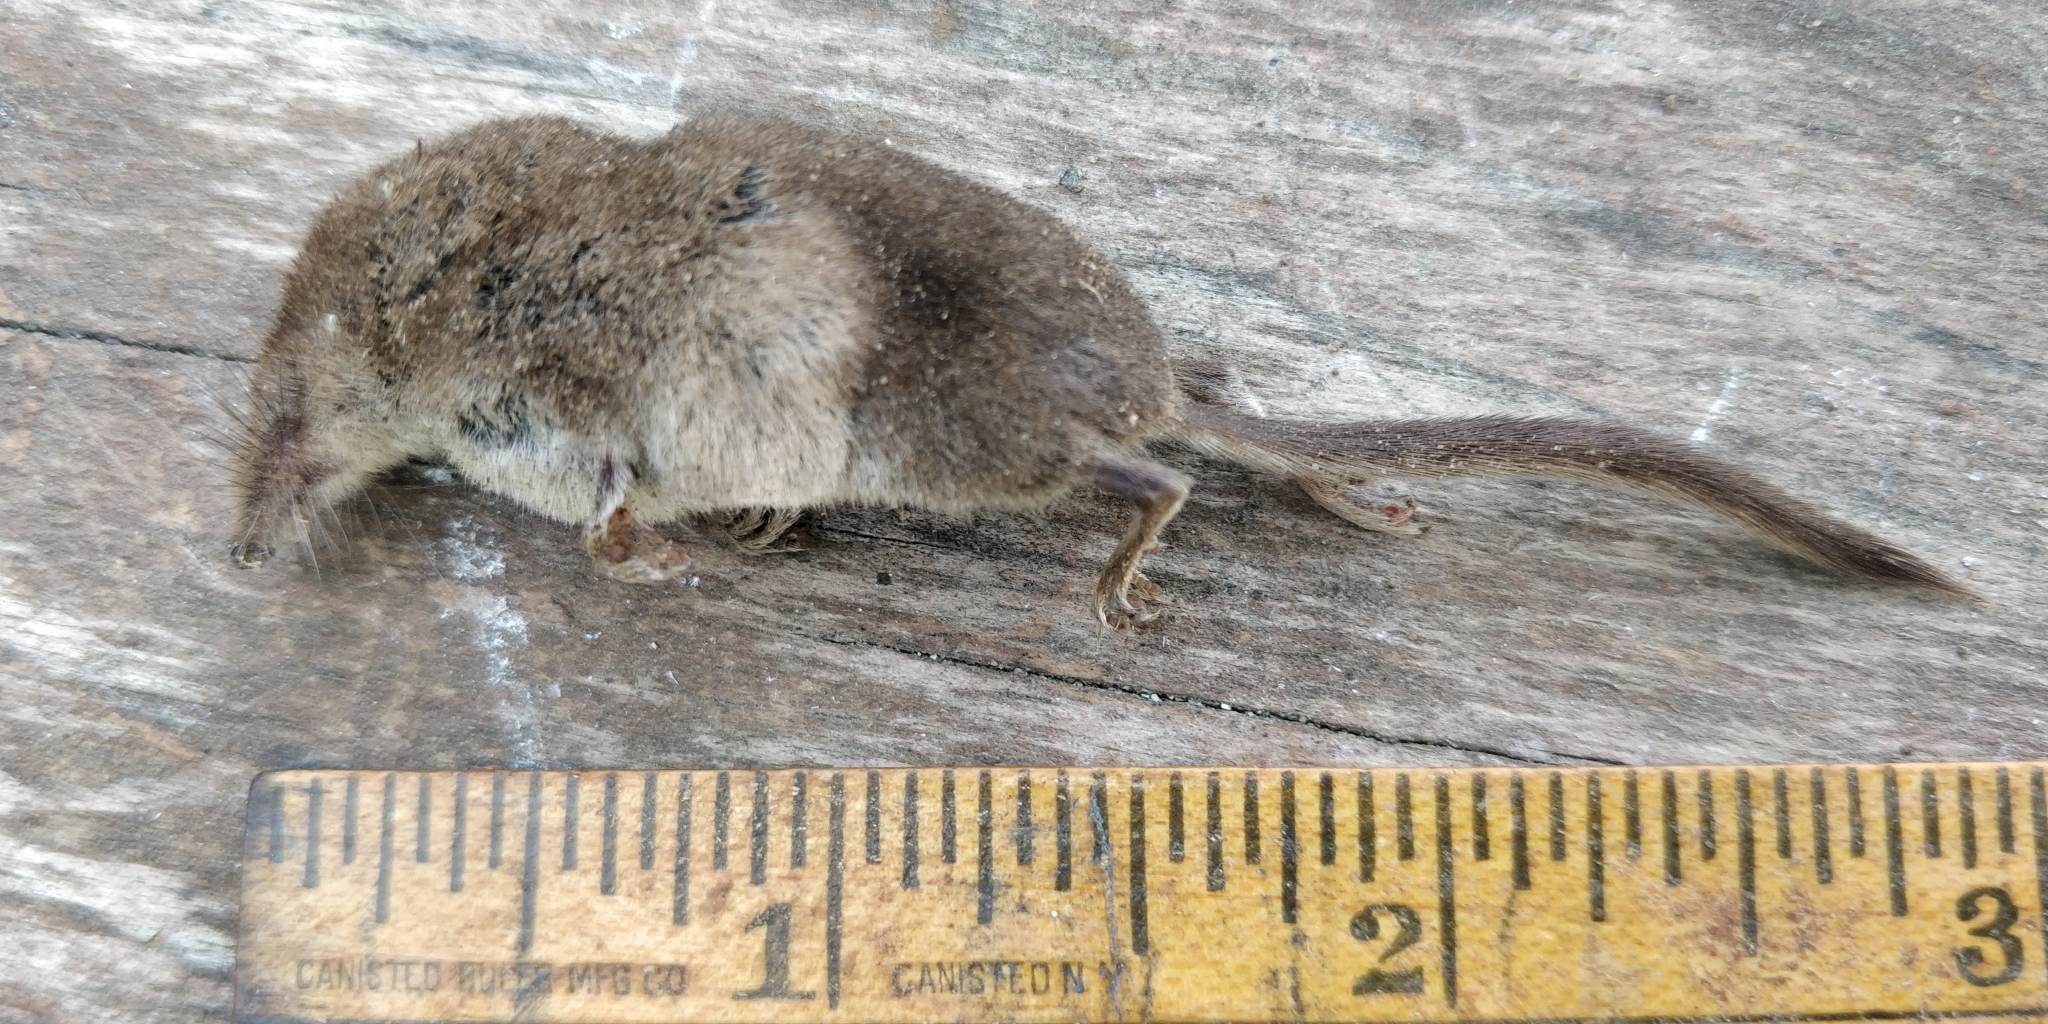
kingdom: Animalia
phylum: Chordata
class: Mammalia
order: Soricomorpha
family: Soricidae
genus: Sorex
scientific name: Sorex haydeni
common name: Prairie shrew
